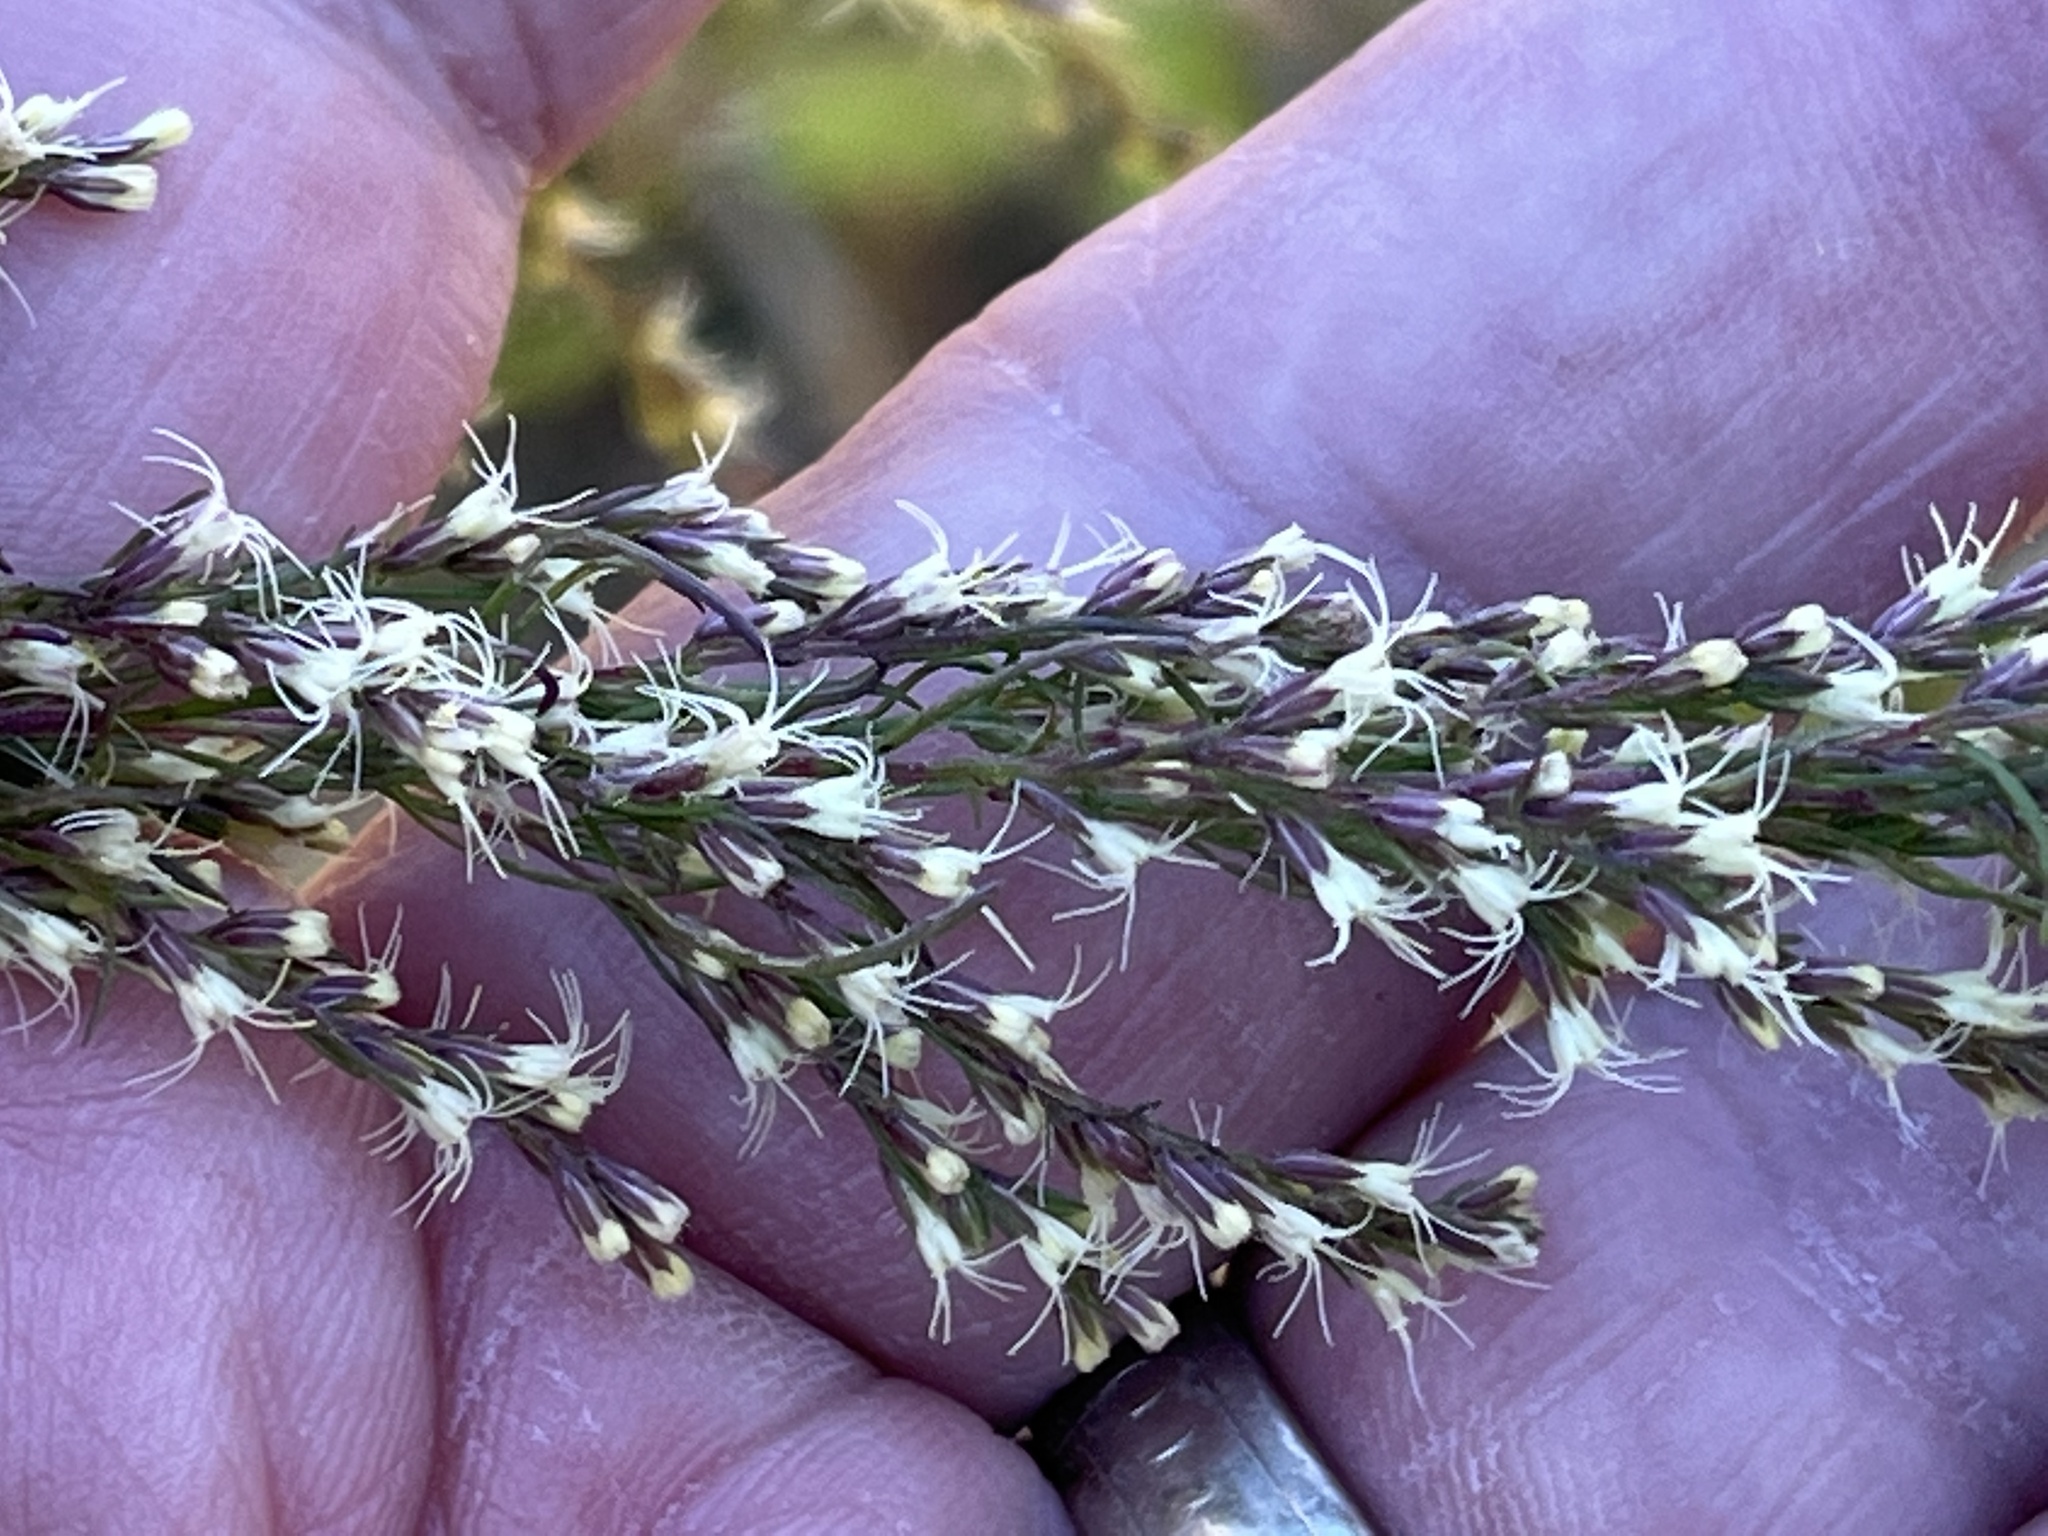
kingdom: Plantae
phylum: Tracheophyta
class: Magnoliopsida
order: Asterales
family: Asteraceae
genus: Eupatorium
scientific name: Eupatorium capillifolium
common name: Dog-fennel
